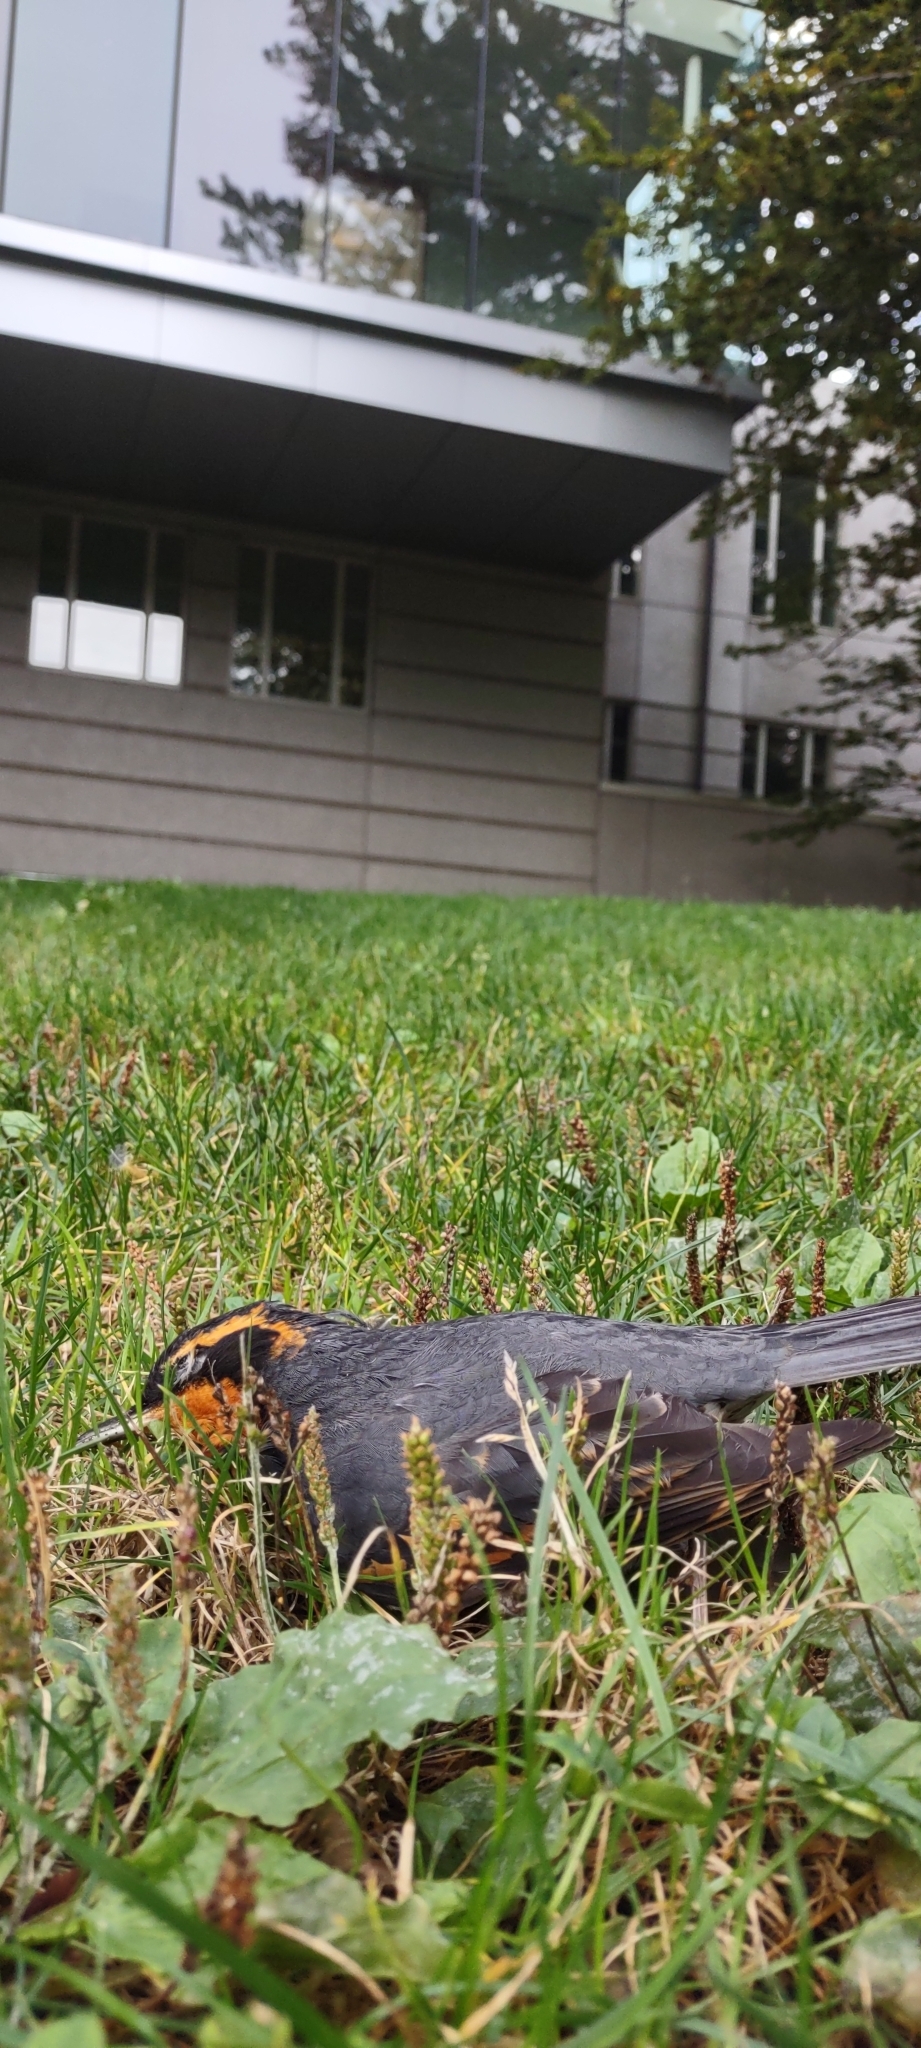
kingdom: Animalia
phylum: Chordata
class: Aves
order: Passeriformes
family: Turdidae
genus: Ixoreus
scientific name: Ixoreus naevius
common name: Varied thrush
